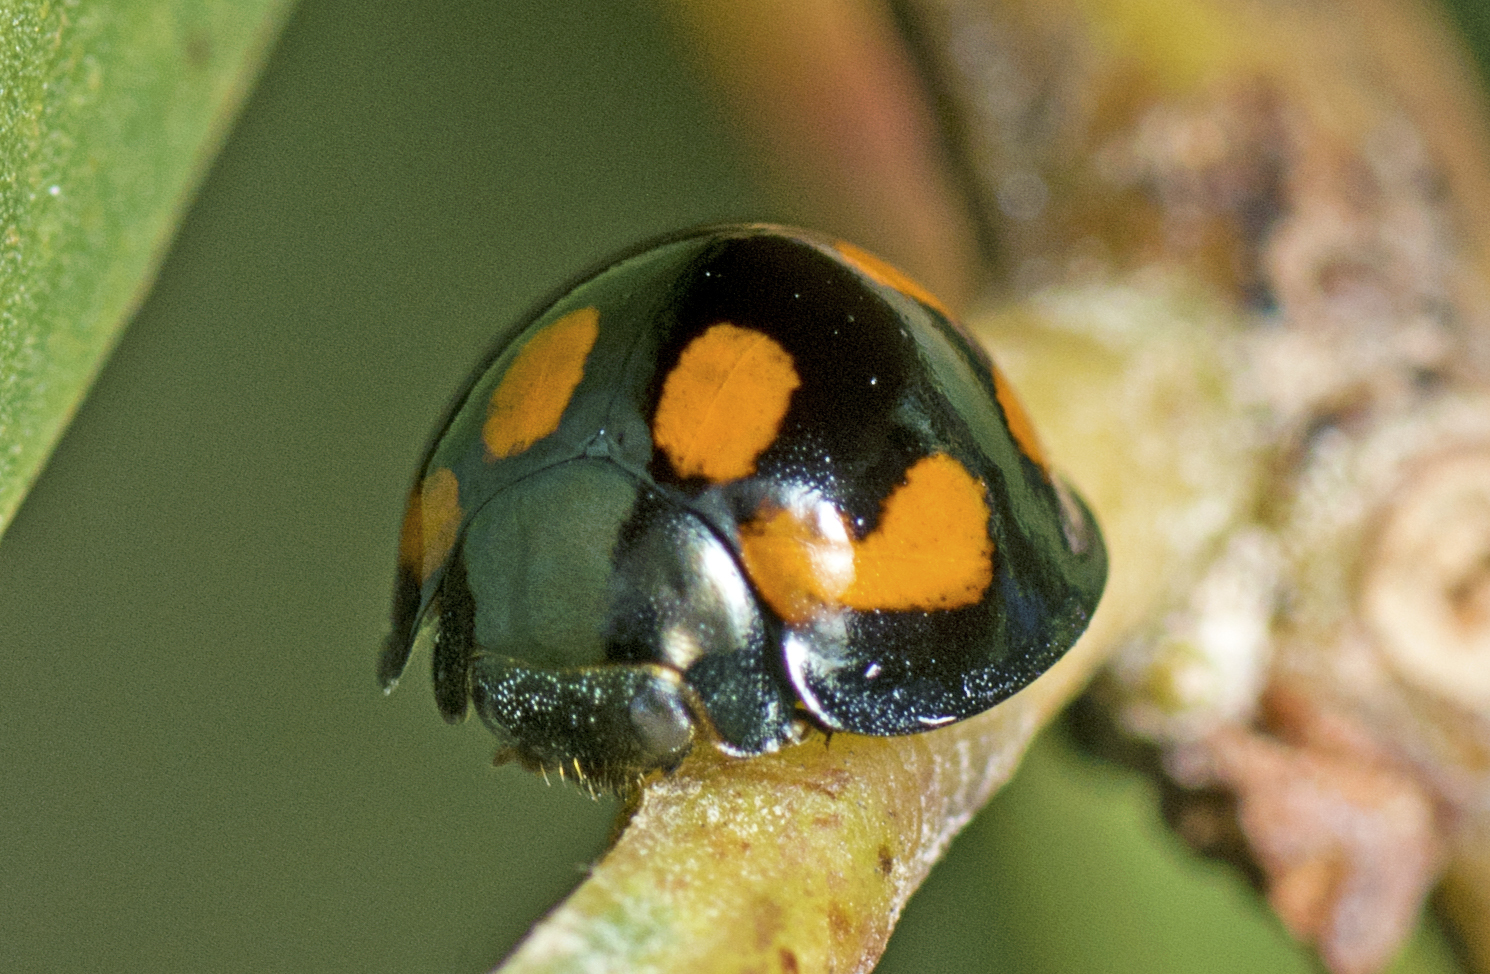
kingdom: Animalia
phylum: Arthropoda
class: Insecta
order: Coleoptera
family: Coccinellidae
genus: Orcus
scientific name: Orcus
